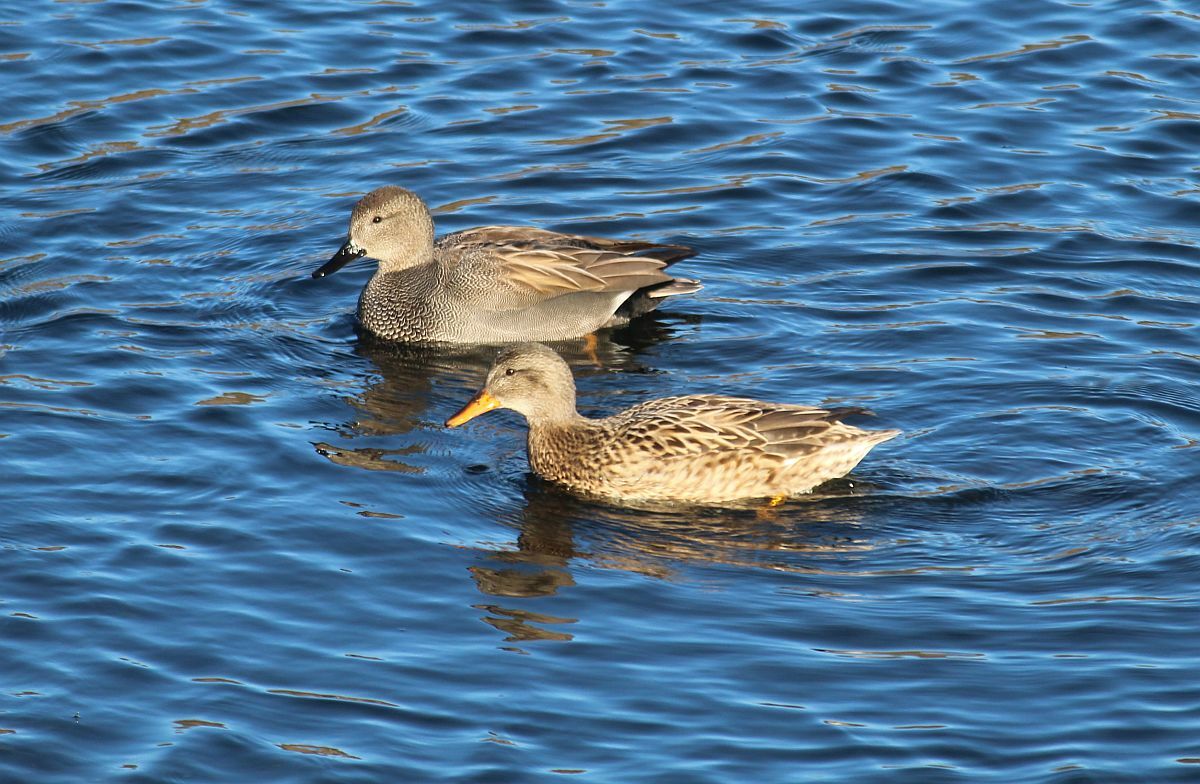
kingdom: Animalia
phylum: Chordata
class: Aves
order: Anseriformes
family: Anatidae
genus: Mareca
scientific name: Mareca strepera
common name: Gadwall
